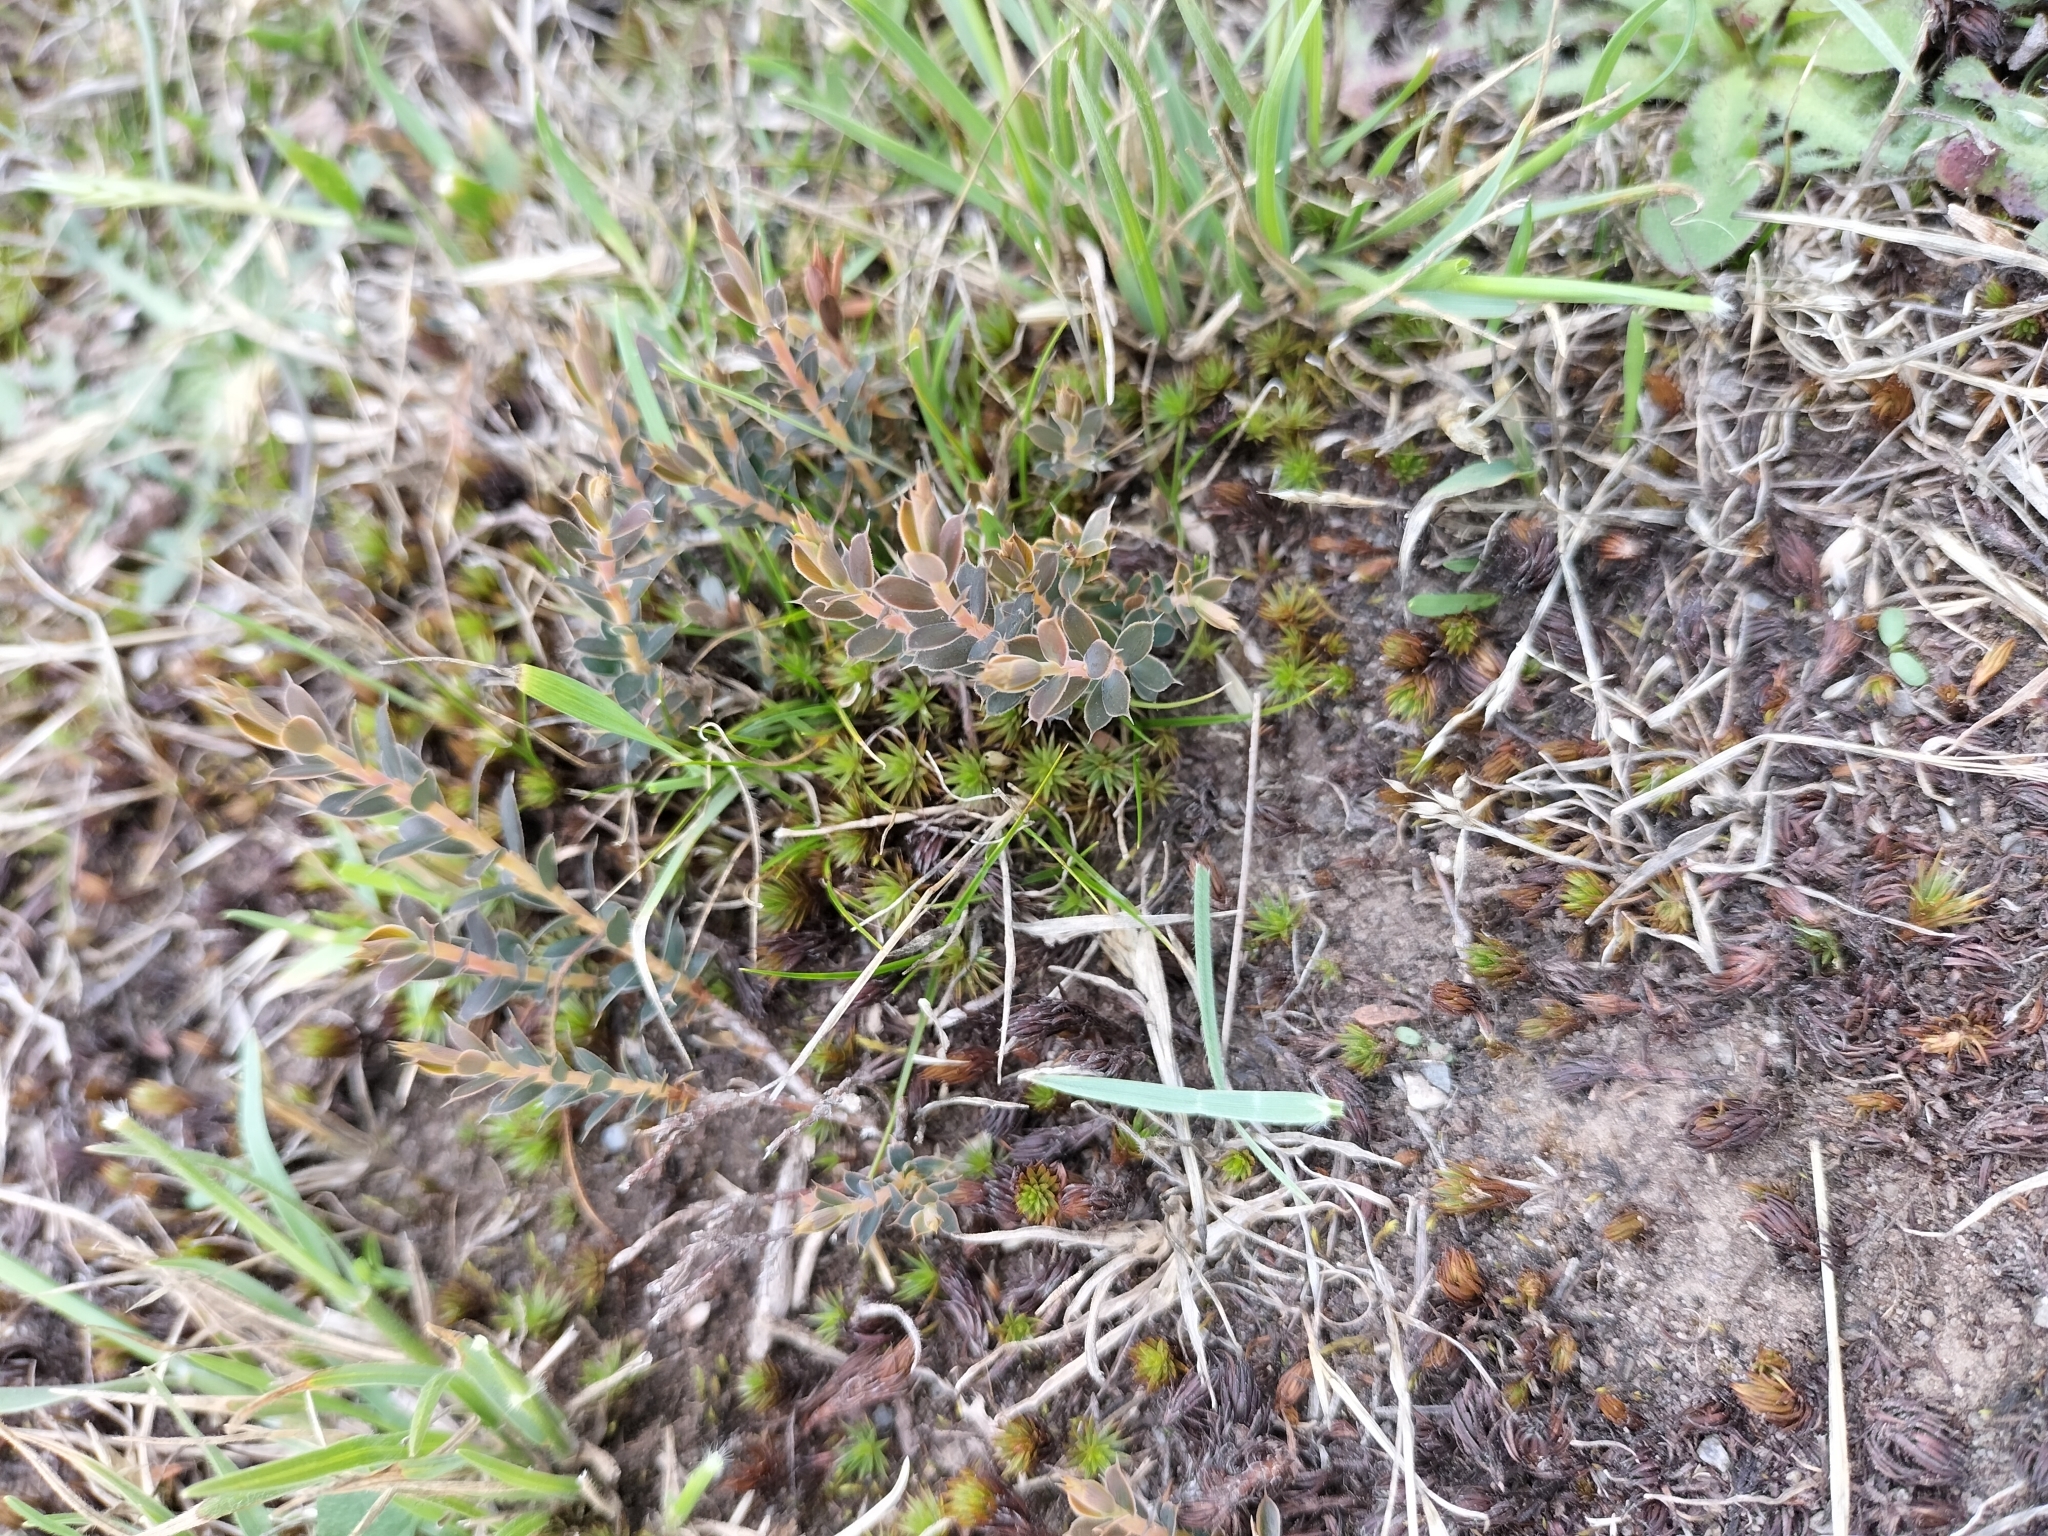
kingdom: Plantae
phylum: Tracheophyta
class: Magnoliopsida
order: Ericales
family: Ericaceae
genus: Styphelia
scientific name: Styphelia nesophila
